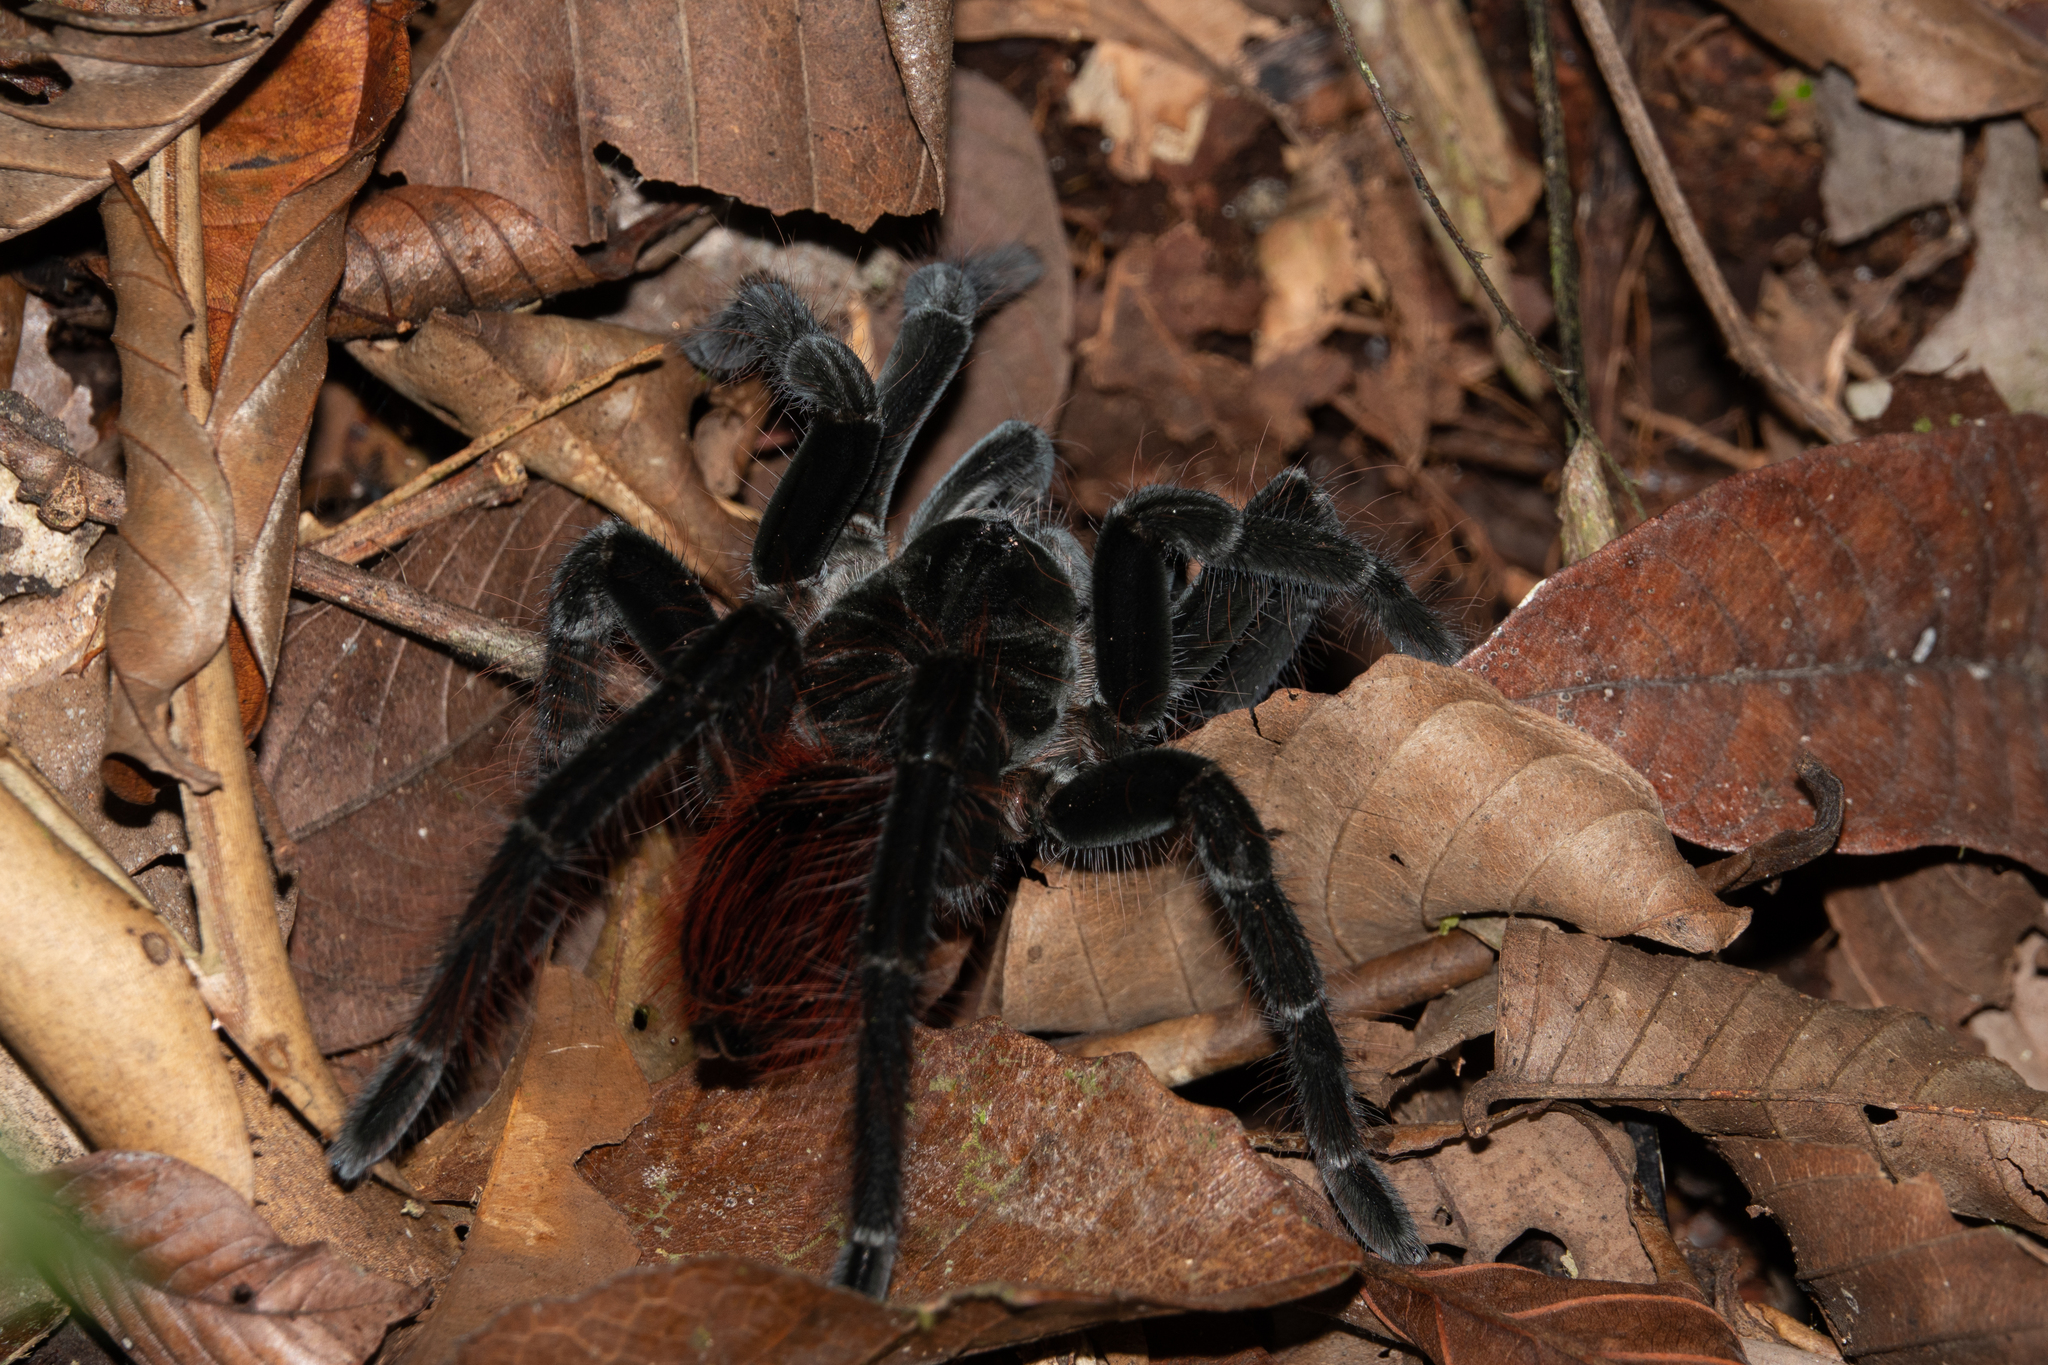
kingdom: Animalia
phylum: Arthropoda
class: Arachnida
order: Araneae
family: Theraphosidae
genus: Megaphobema
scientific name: Megaphobema velvetosoma
